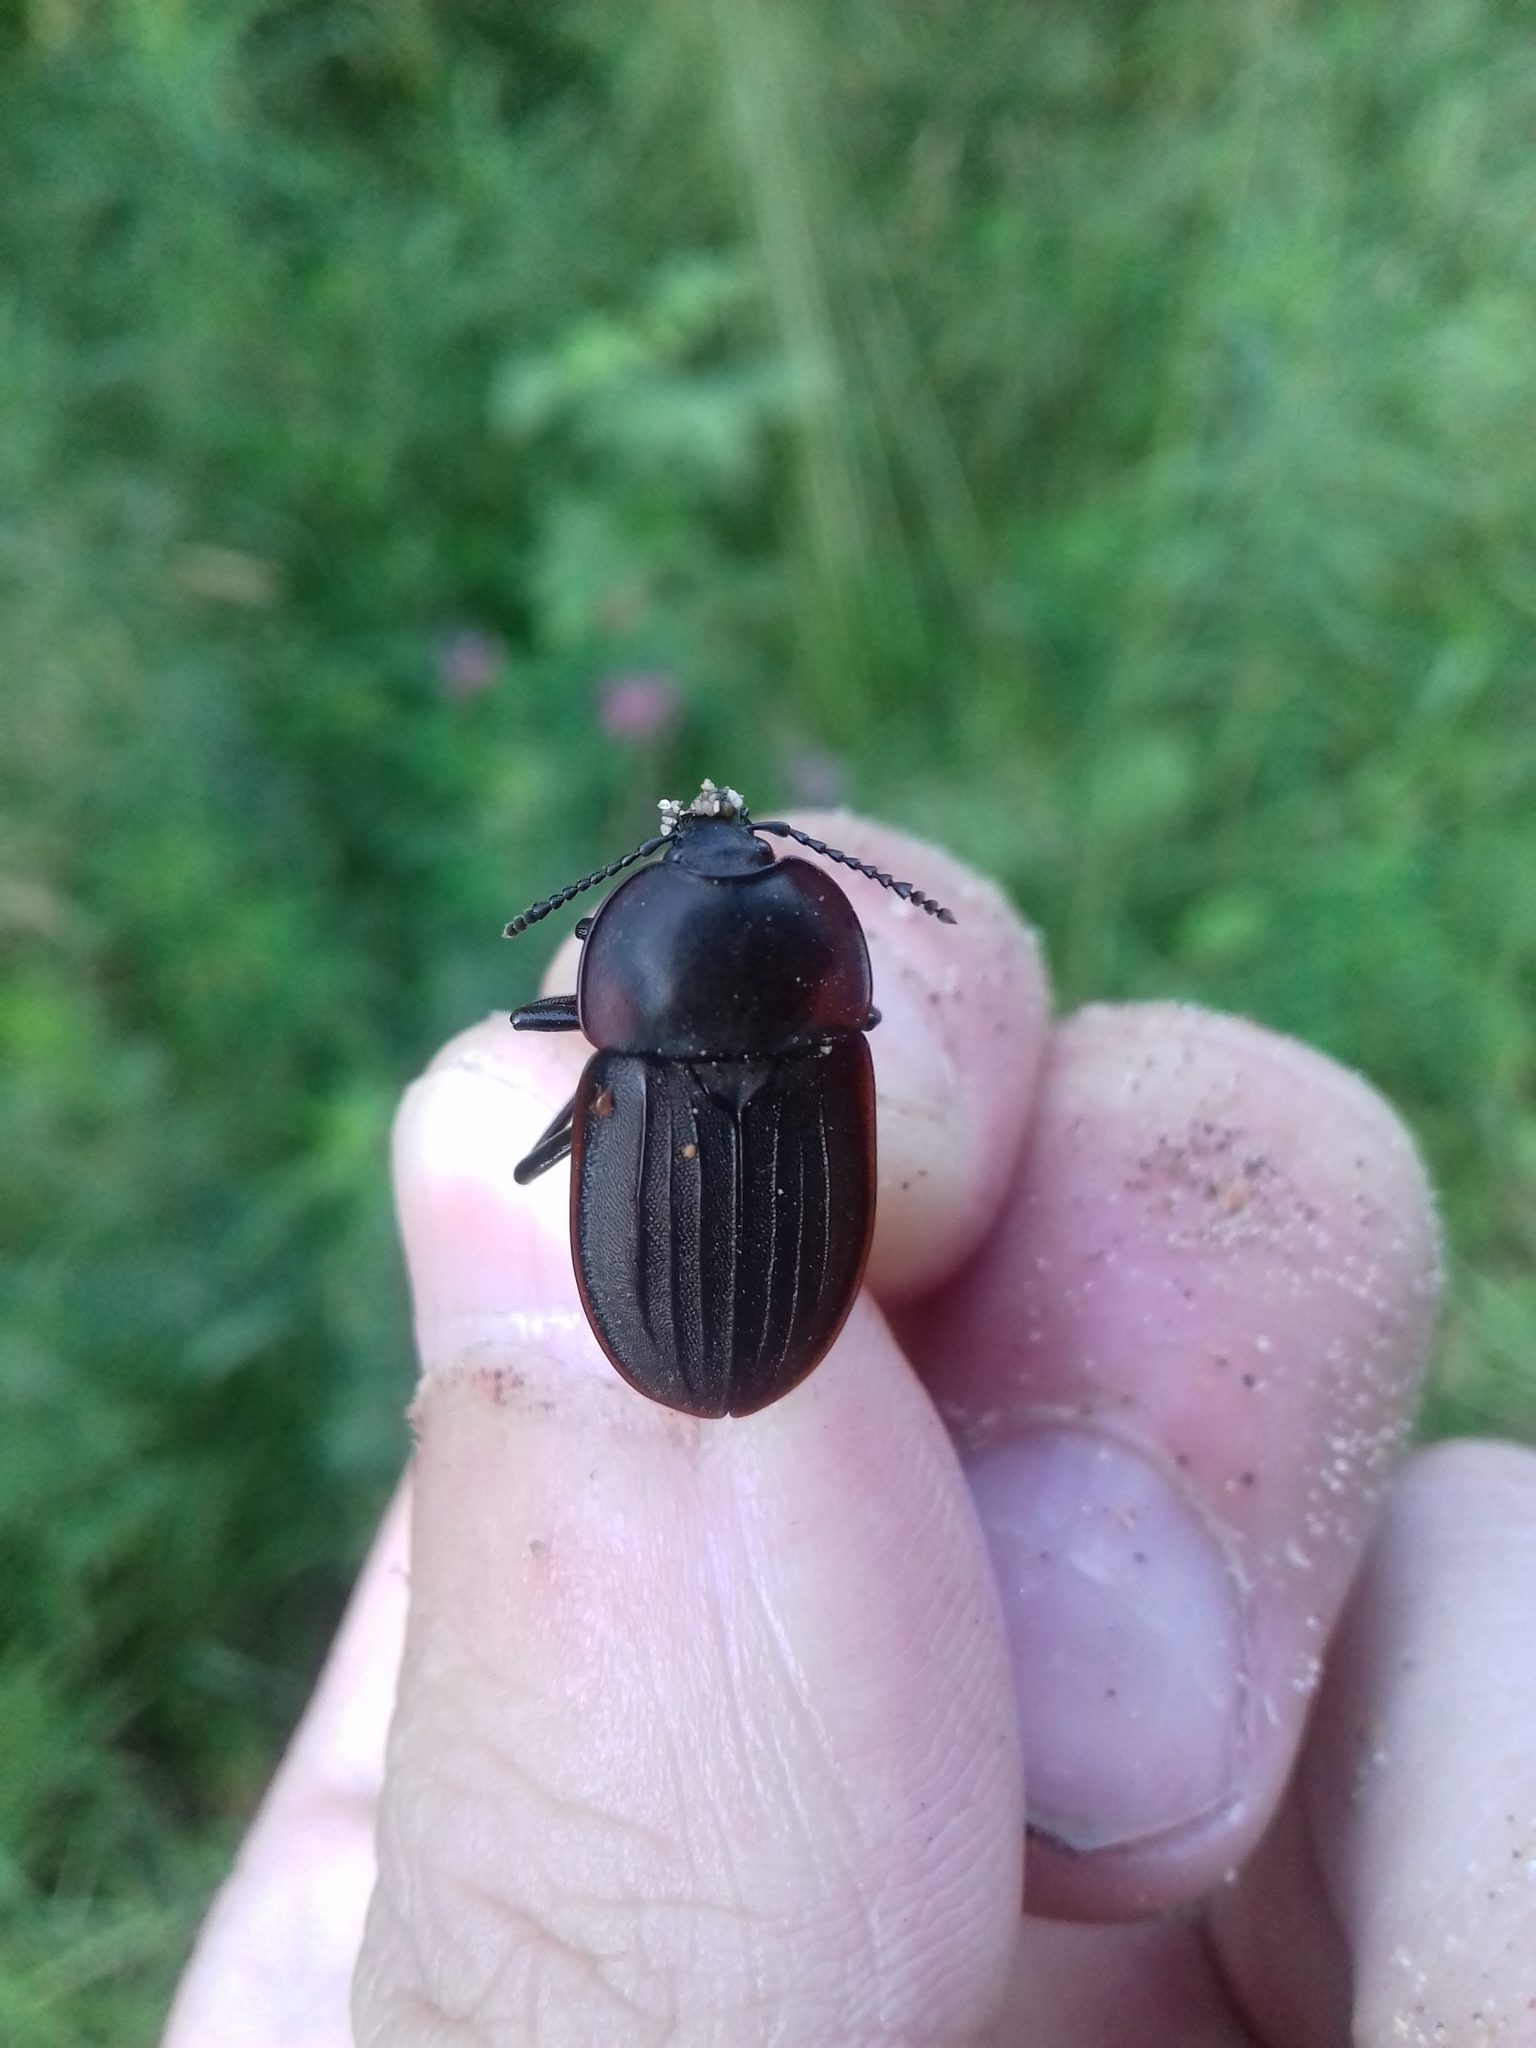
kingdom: Animalia
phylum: Arthropoda
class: Insecta
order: Coleoptera
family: Staphylinidae
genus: Silpha
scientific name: Silpha atrata
